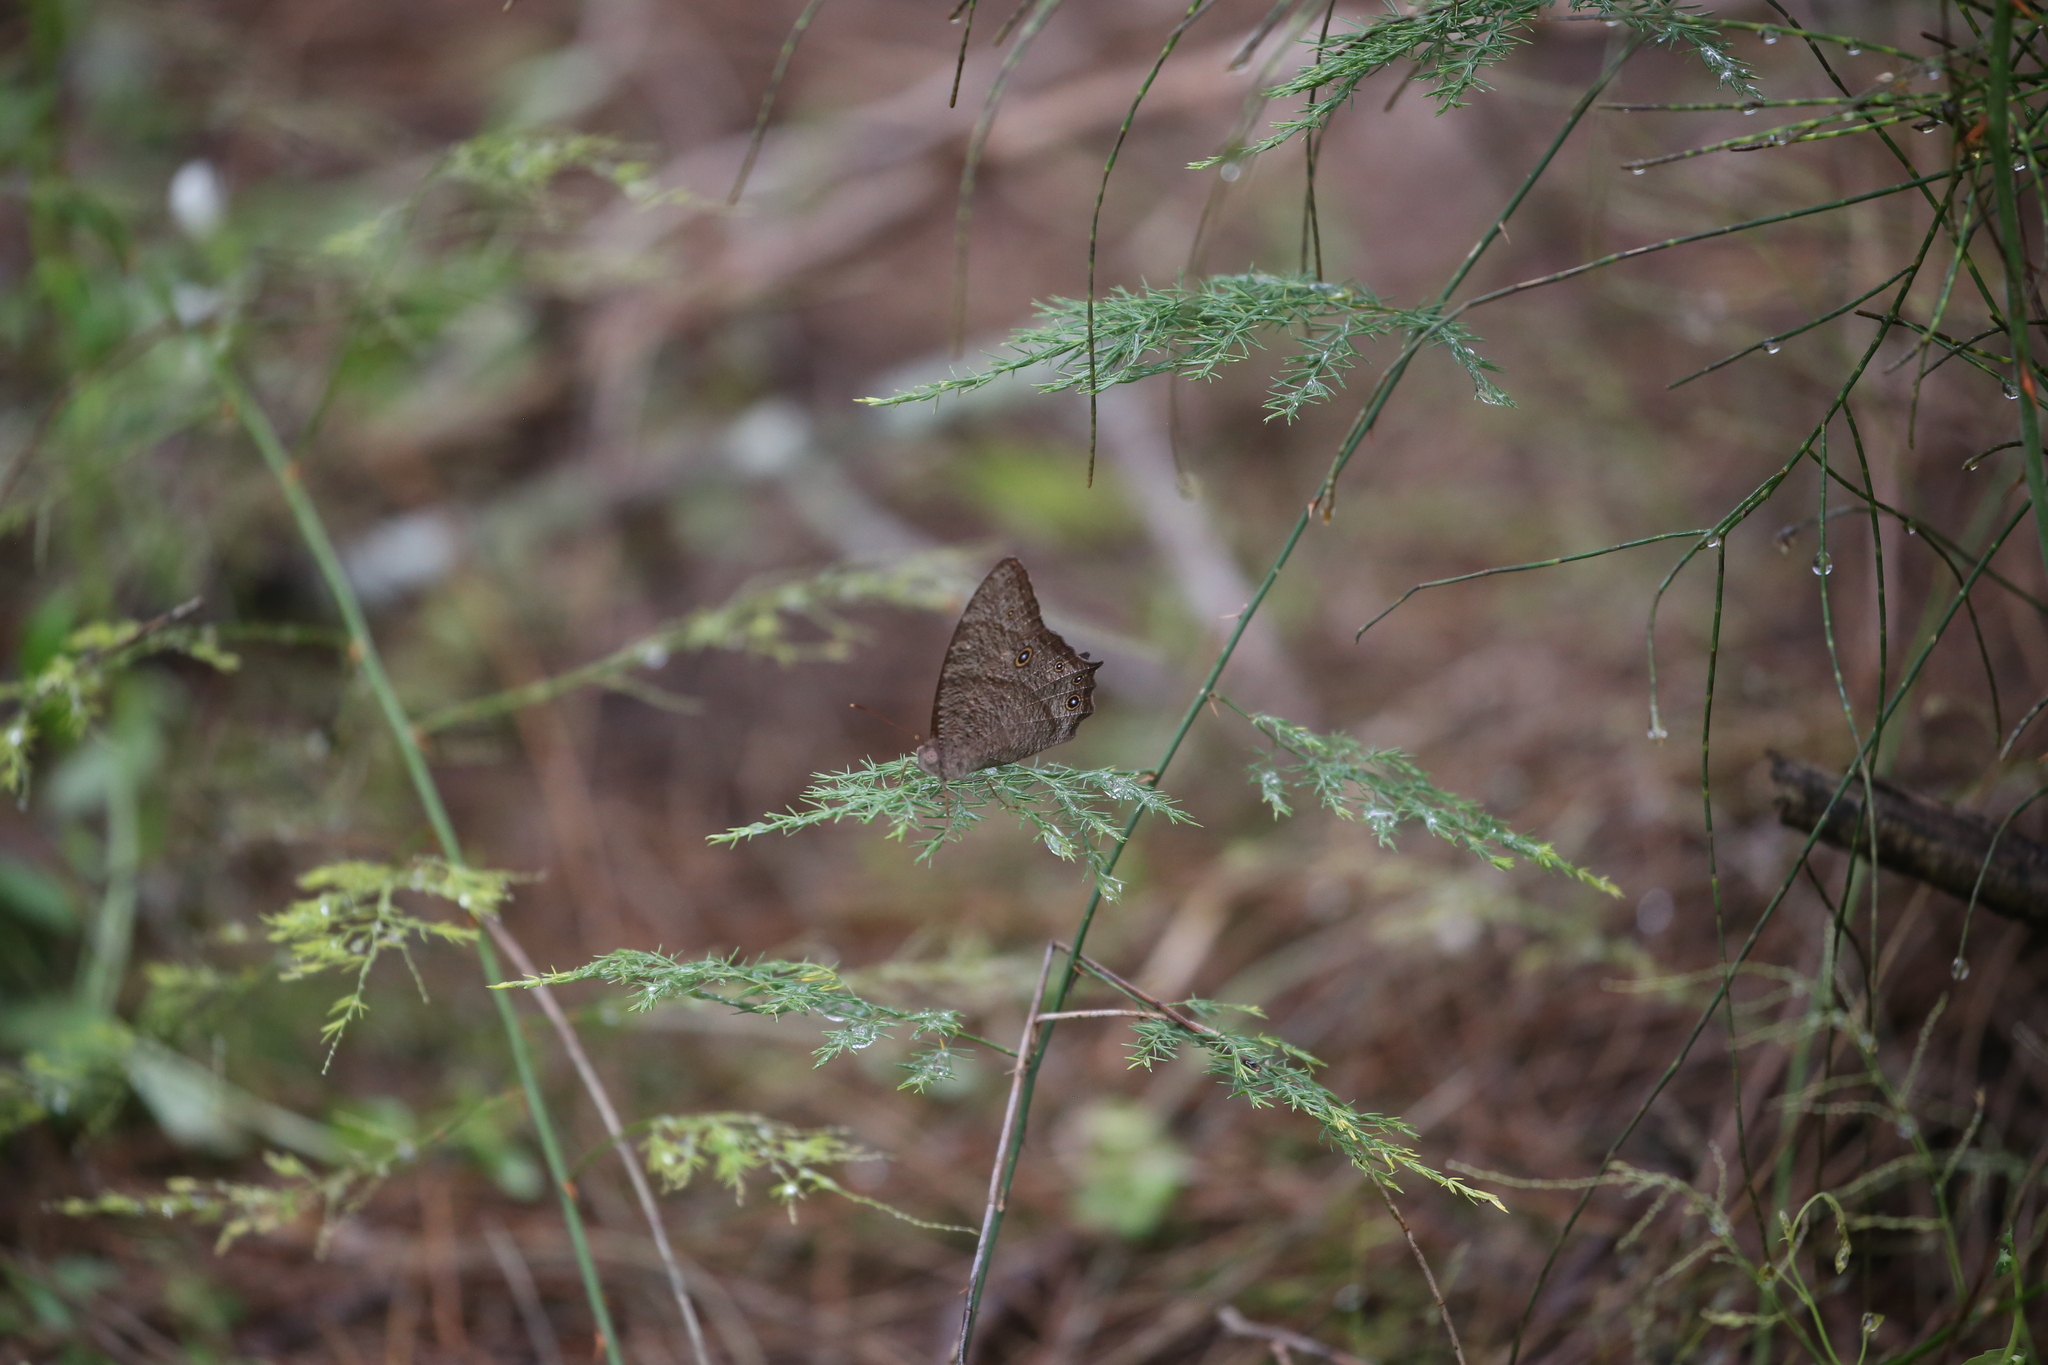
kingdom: Animalia
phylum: Arthropoda
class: Insecta
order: Lepidoptera
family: Nymphalidae
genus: Melanitis
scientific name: Melanitis leda
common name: Twilight brown
